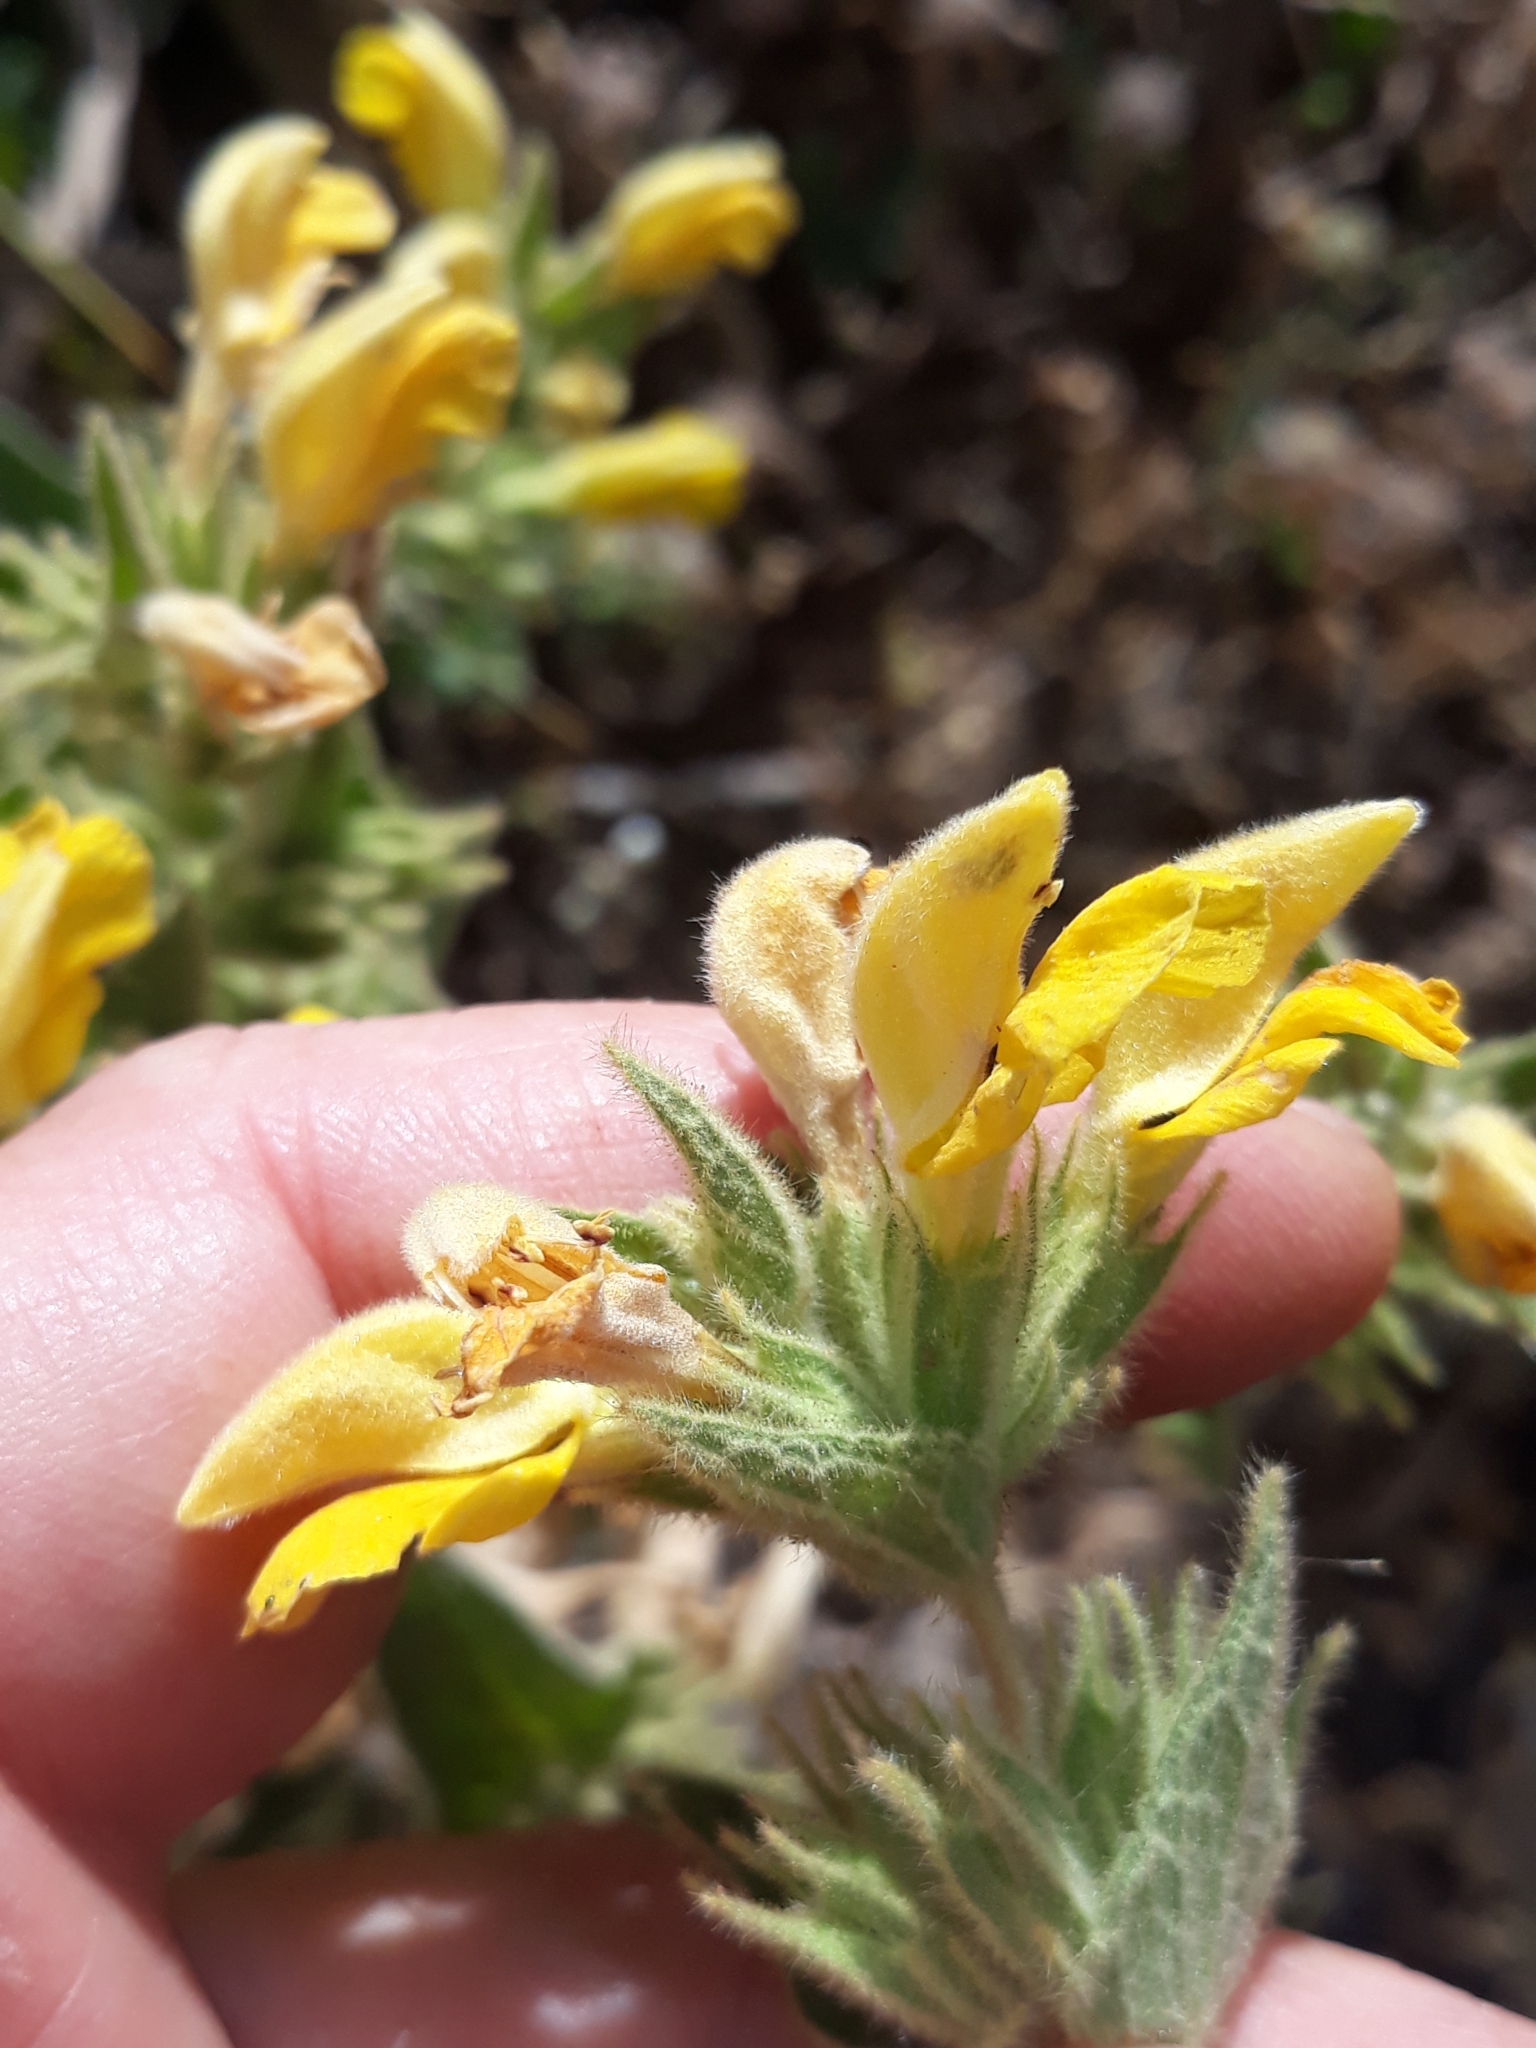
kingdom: Plantae
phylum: Tracheophyta
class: Magnoliopsida
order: Lamiales
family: Lamiaceae
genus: Phlomis
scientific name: Phlomis crinita
